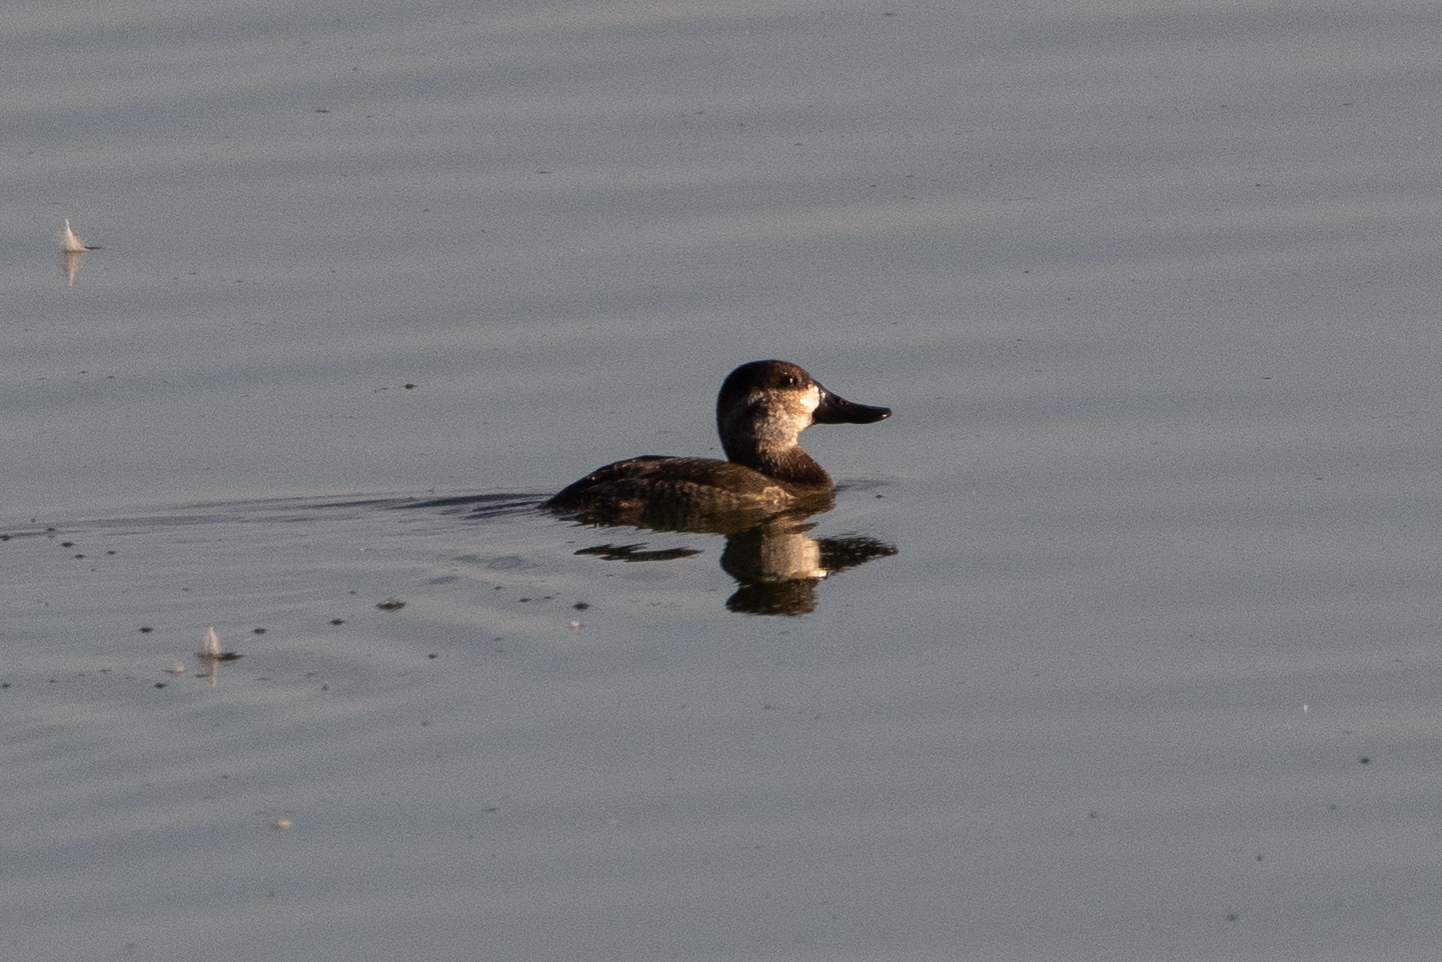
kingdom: Animalia
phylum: Chordata
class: Aves
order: Anseriformes
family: Anatidae
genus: Oxyura
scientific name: Oxyura jamaicensis
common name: Ruddy duck
